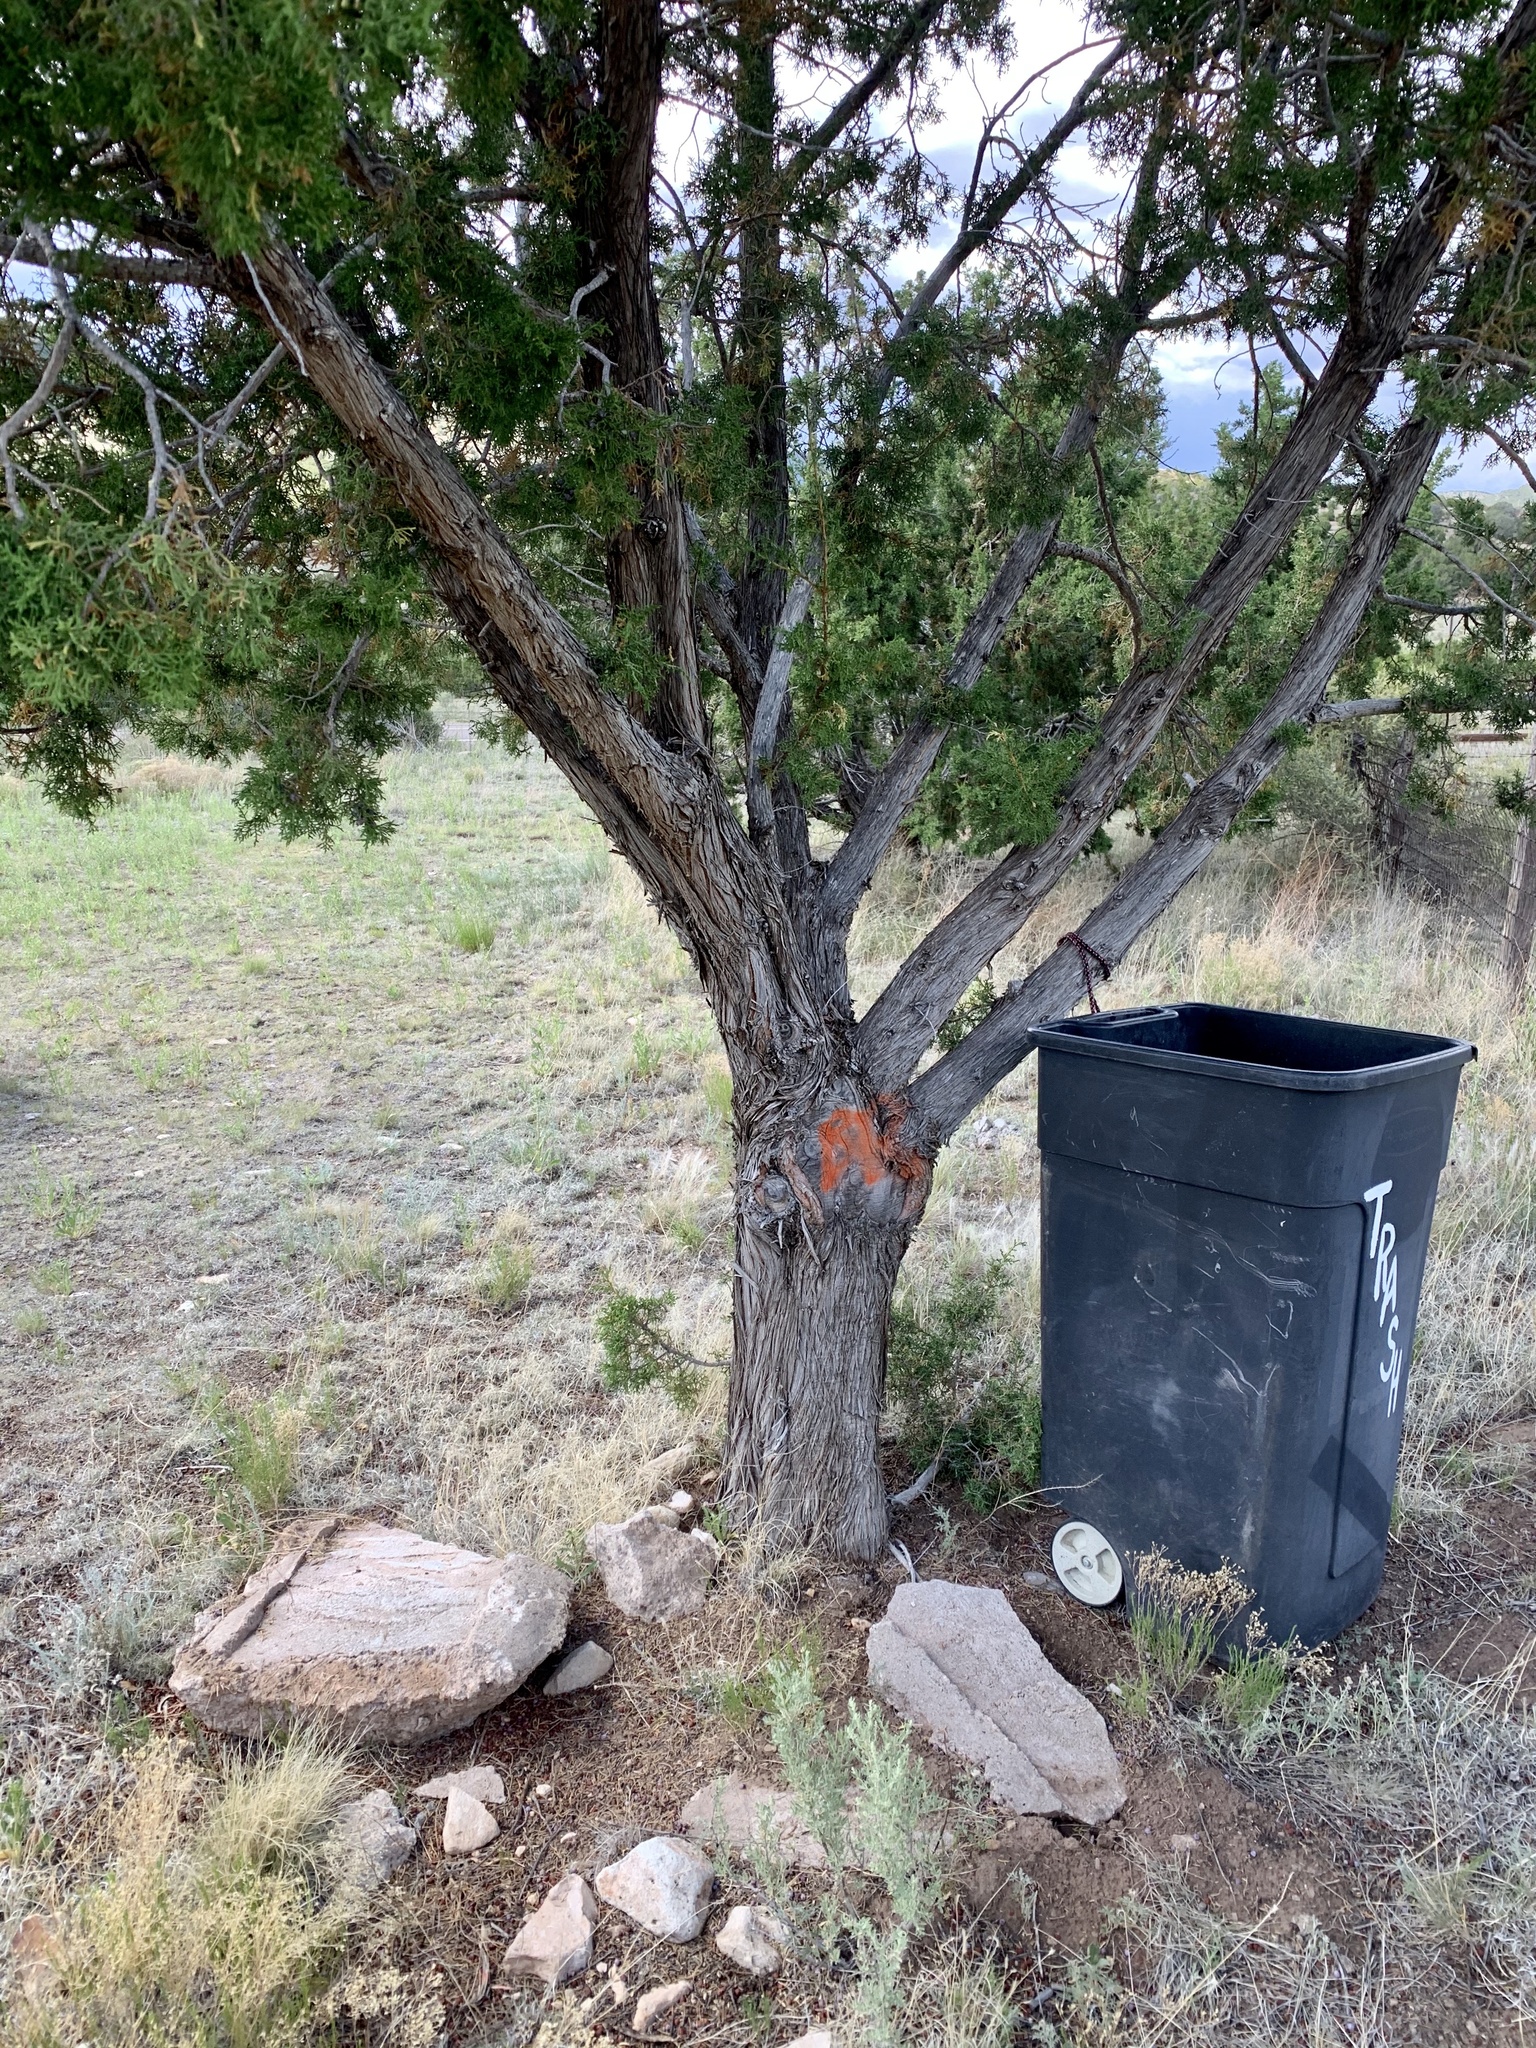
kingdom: Plantae
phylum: Tracheophyta
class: Pinopsida
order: Pinales
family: Cupressaceae
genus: Juniperus
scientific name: Juniperus monosperma
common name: One-seed juniper
